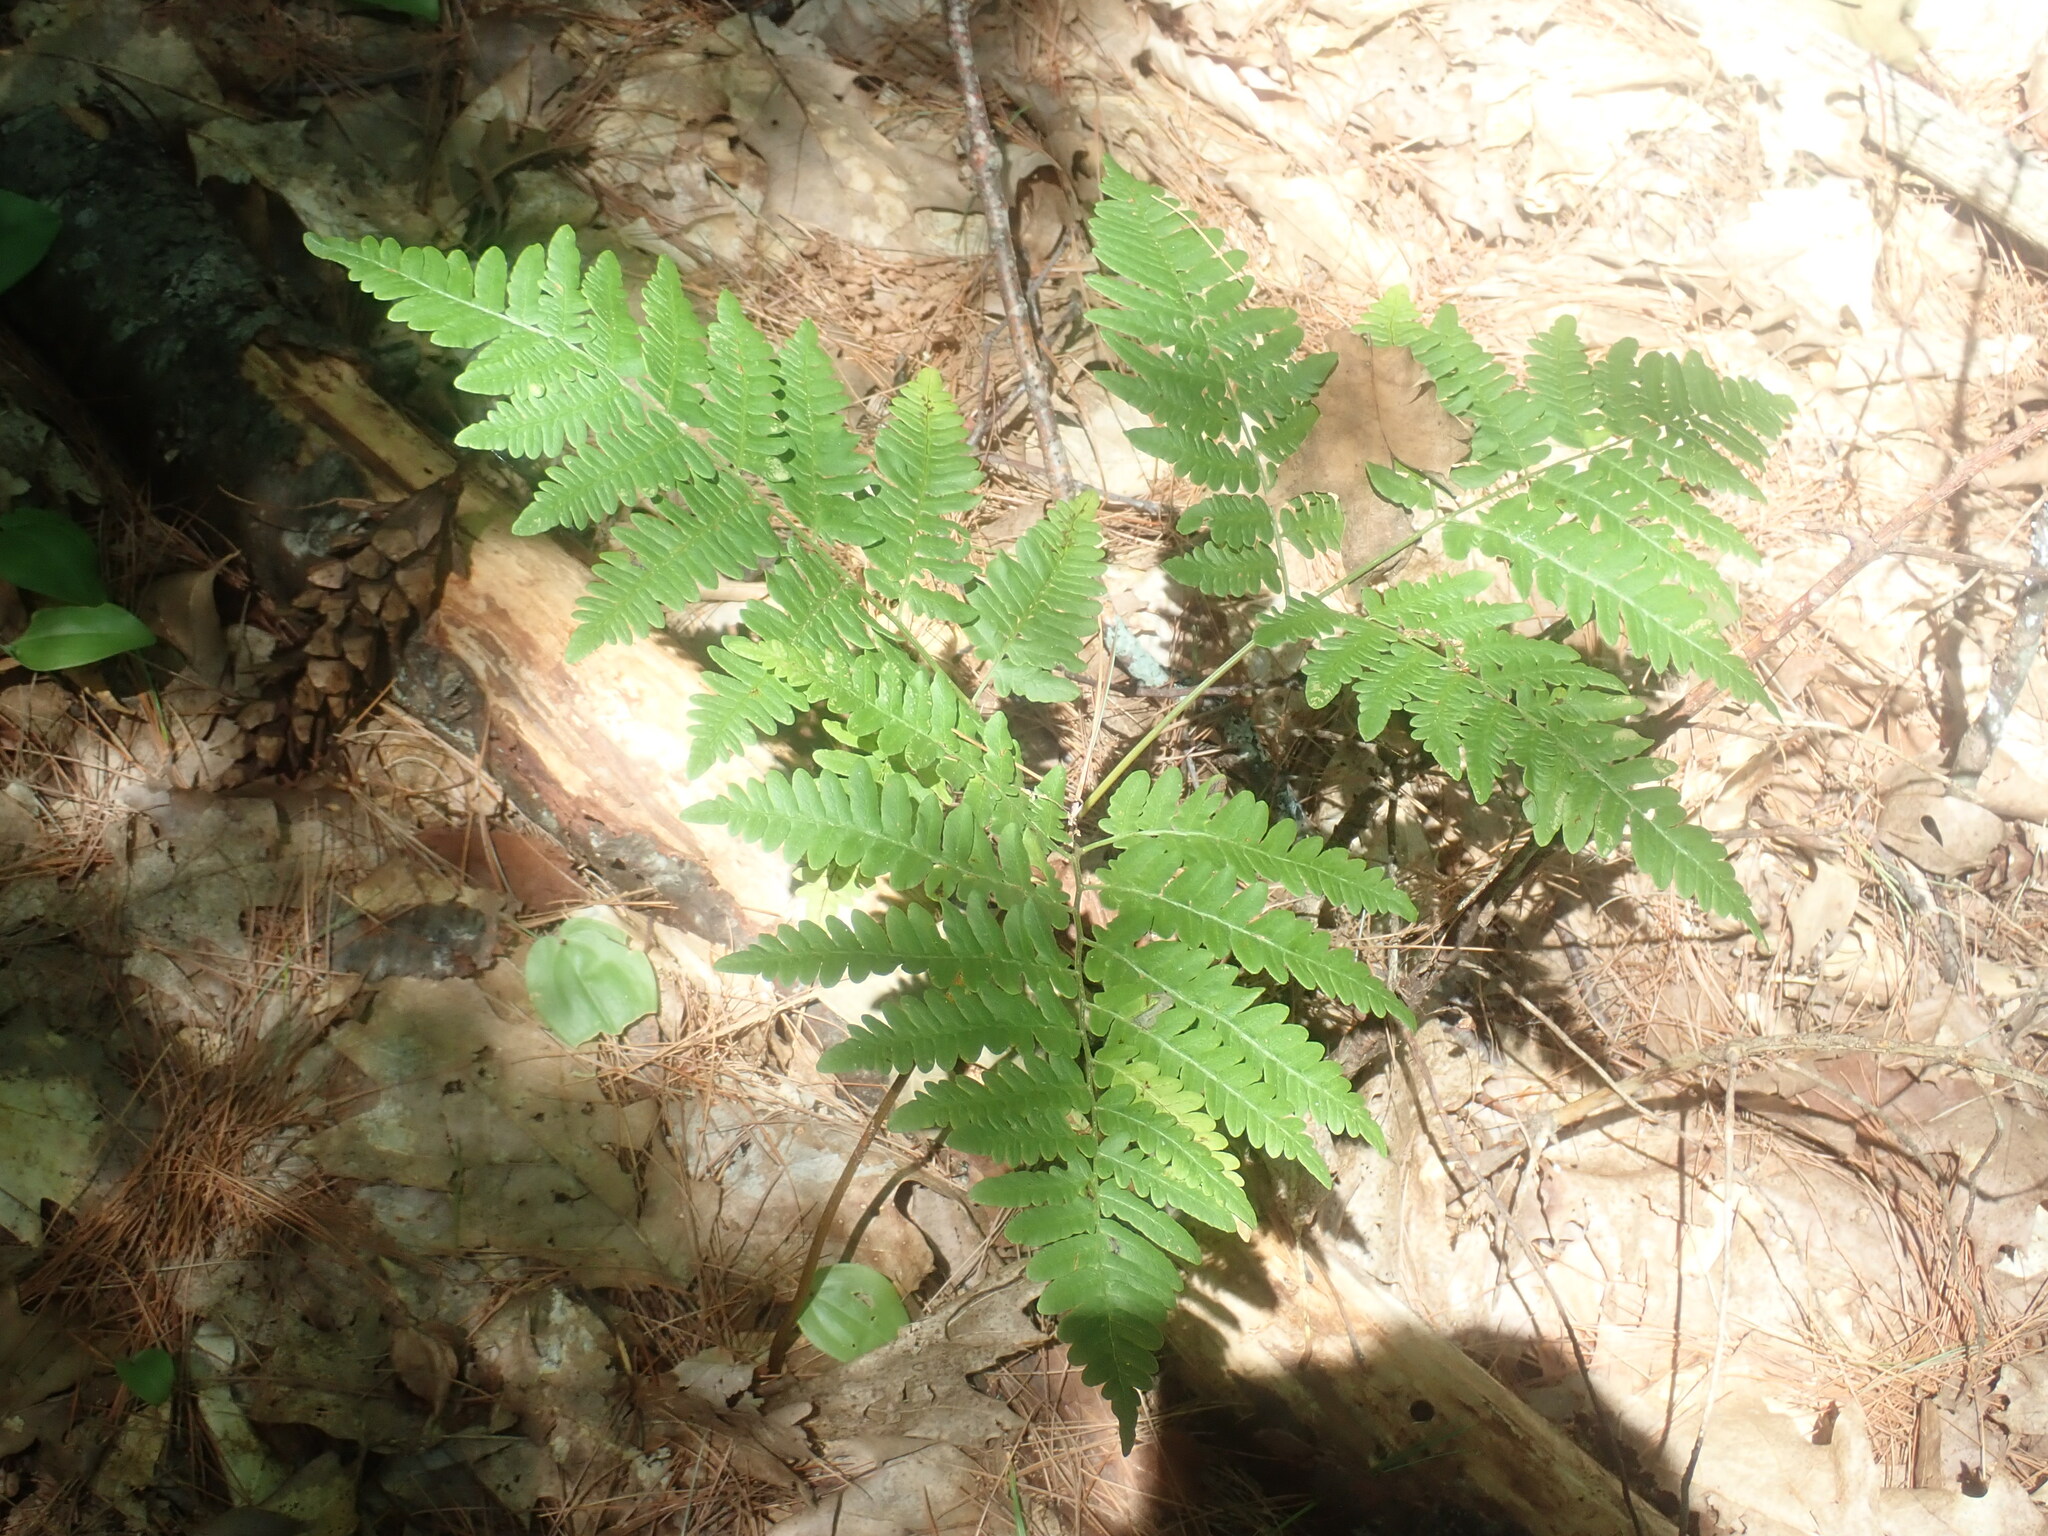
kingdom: Plantae
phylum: Tracheophyta
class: Polypodiopsida
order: Polypodiales
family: Dennstaedtiaceae
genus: Pteridium
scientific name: Pteridium aquilinum
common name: Bracken
